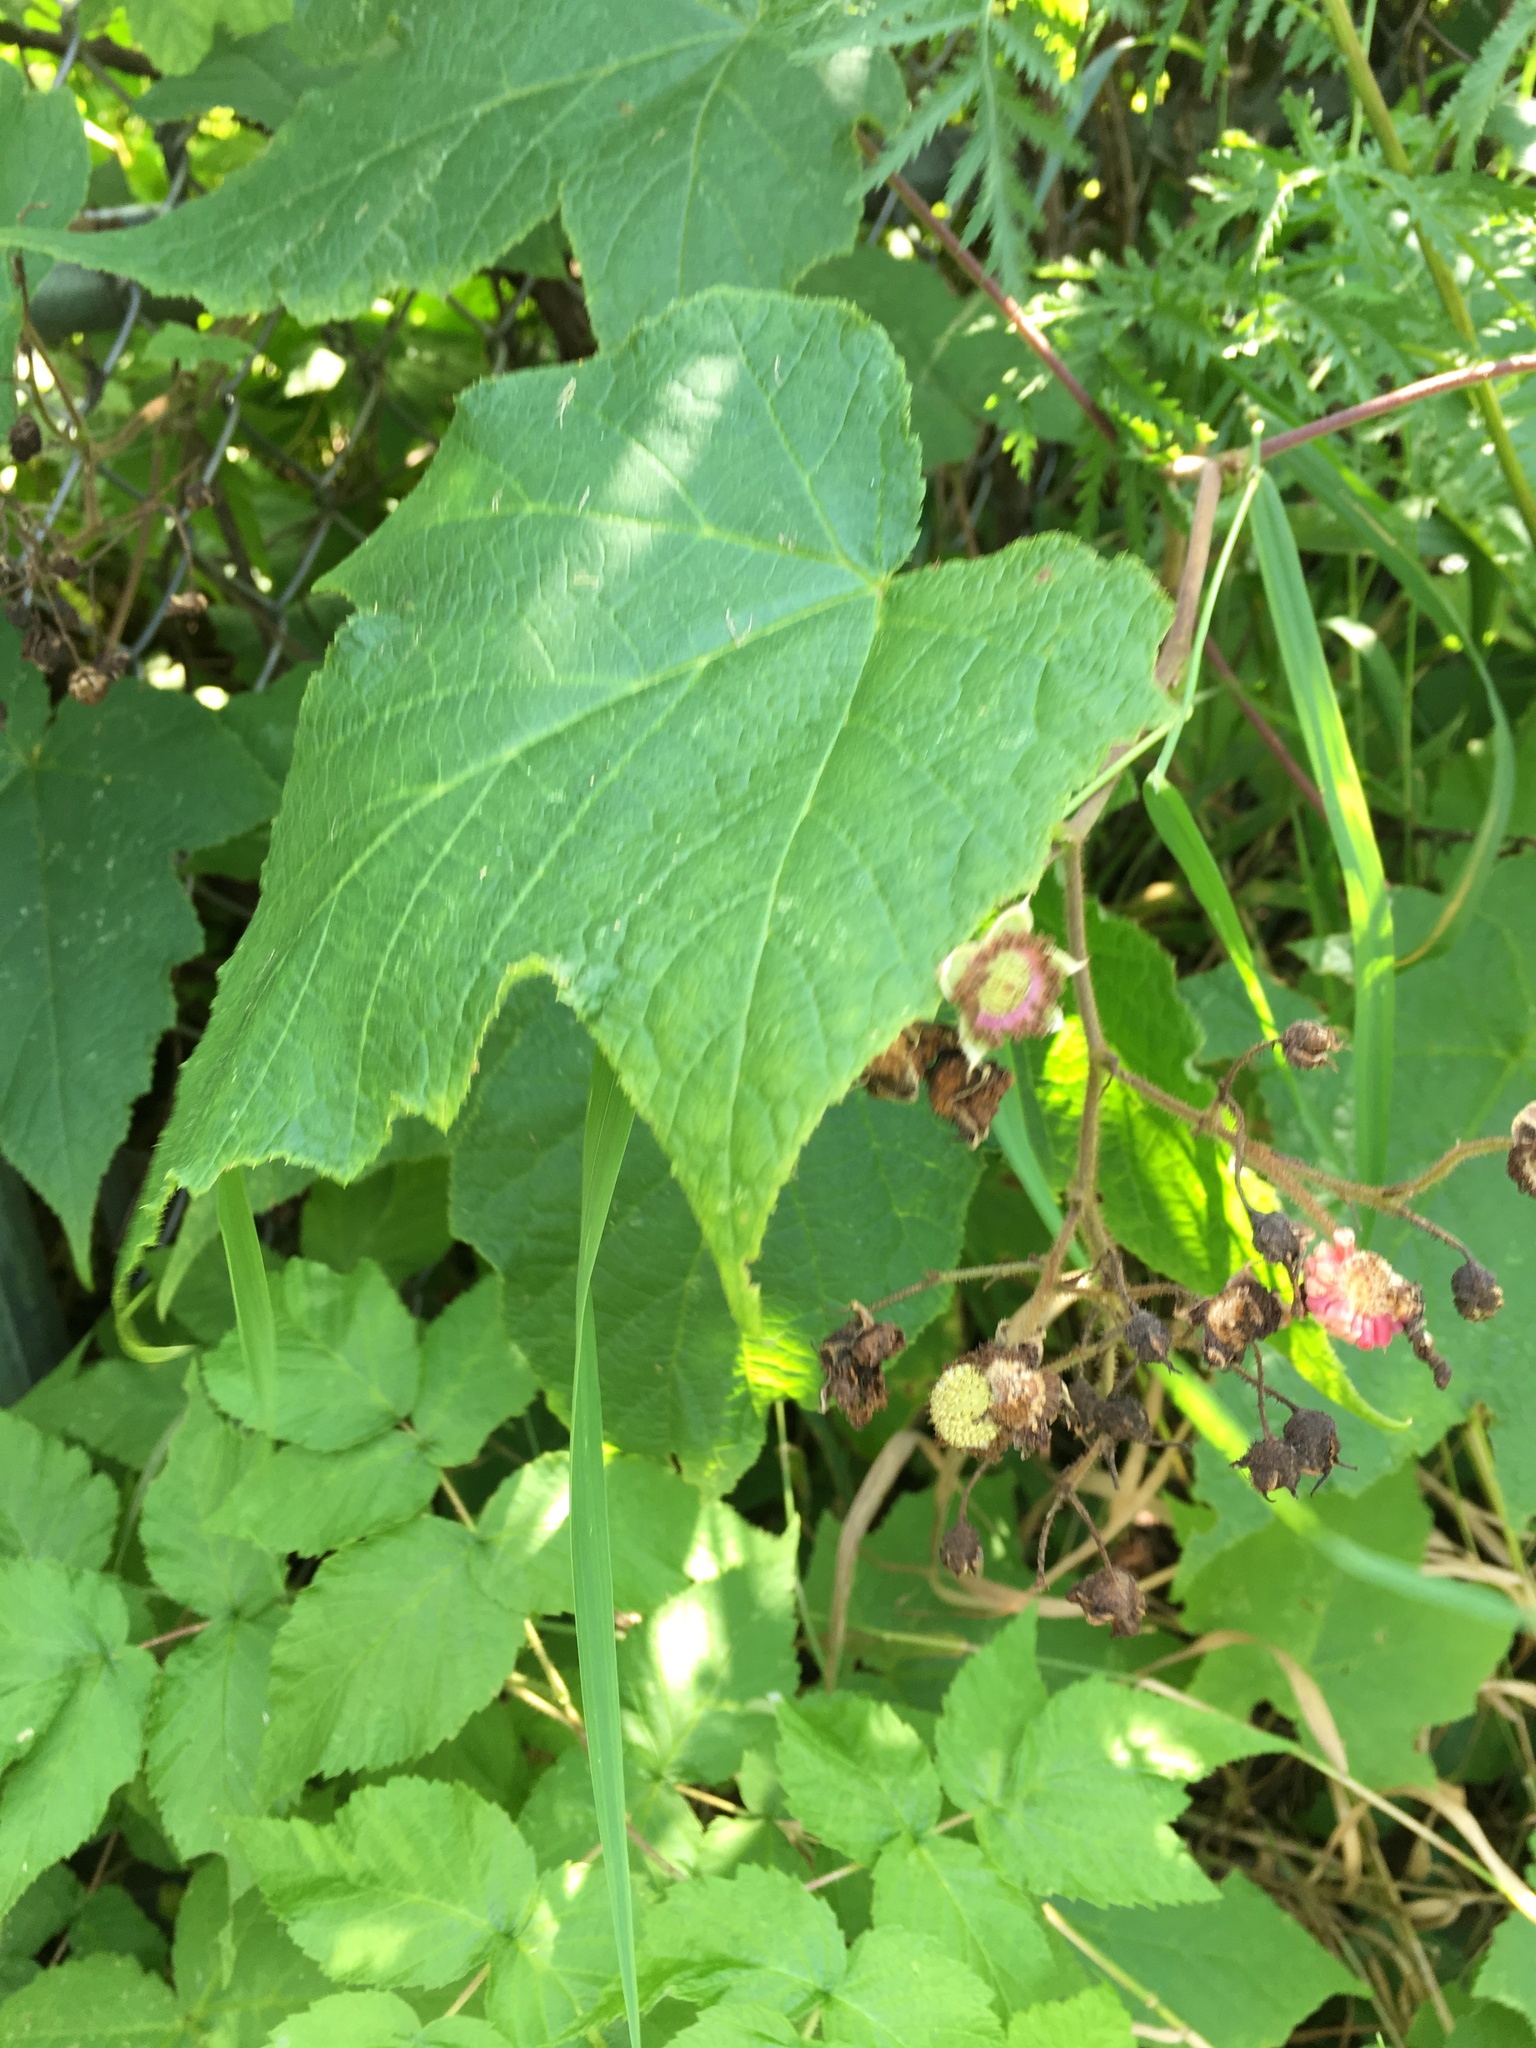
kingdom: Plantae
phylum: Tracheophyta
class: Magnoliopsida
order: Rosales
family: Rosaceae
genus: Rubus
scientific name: Rubus odoratus
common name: Purple-flowered raspberry
